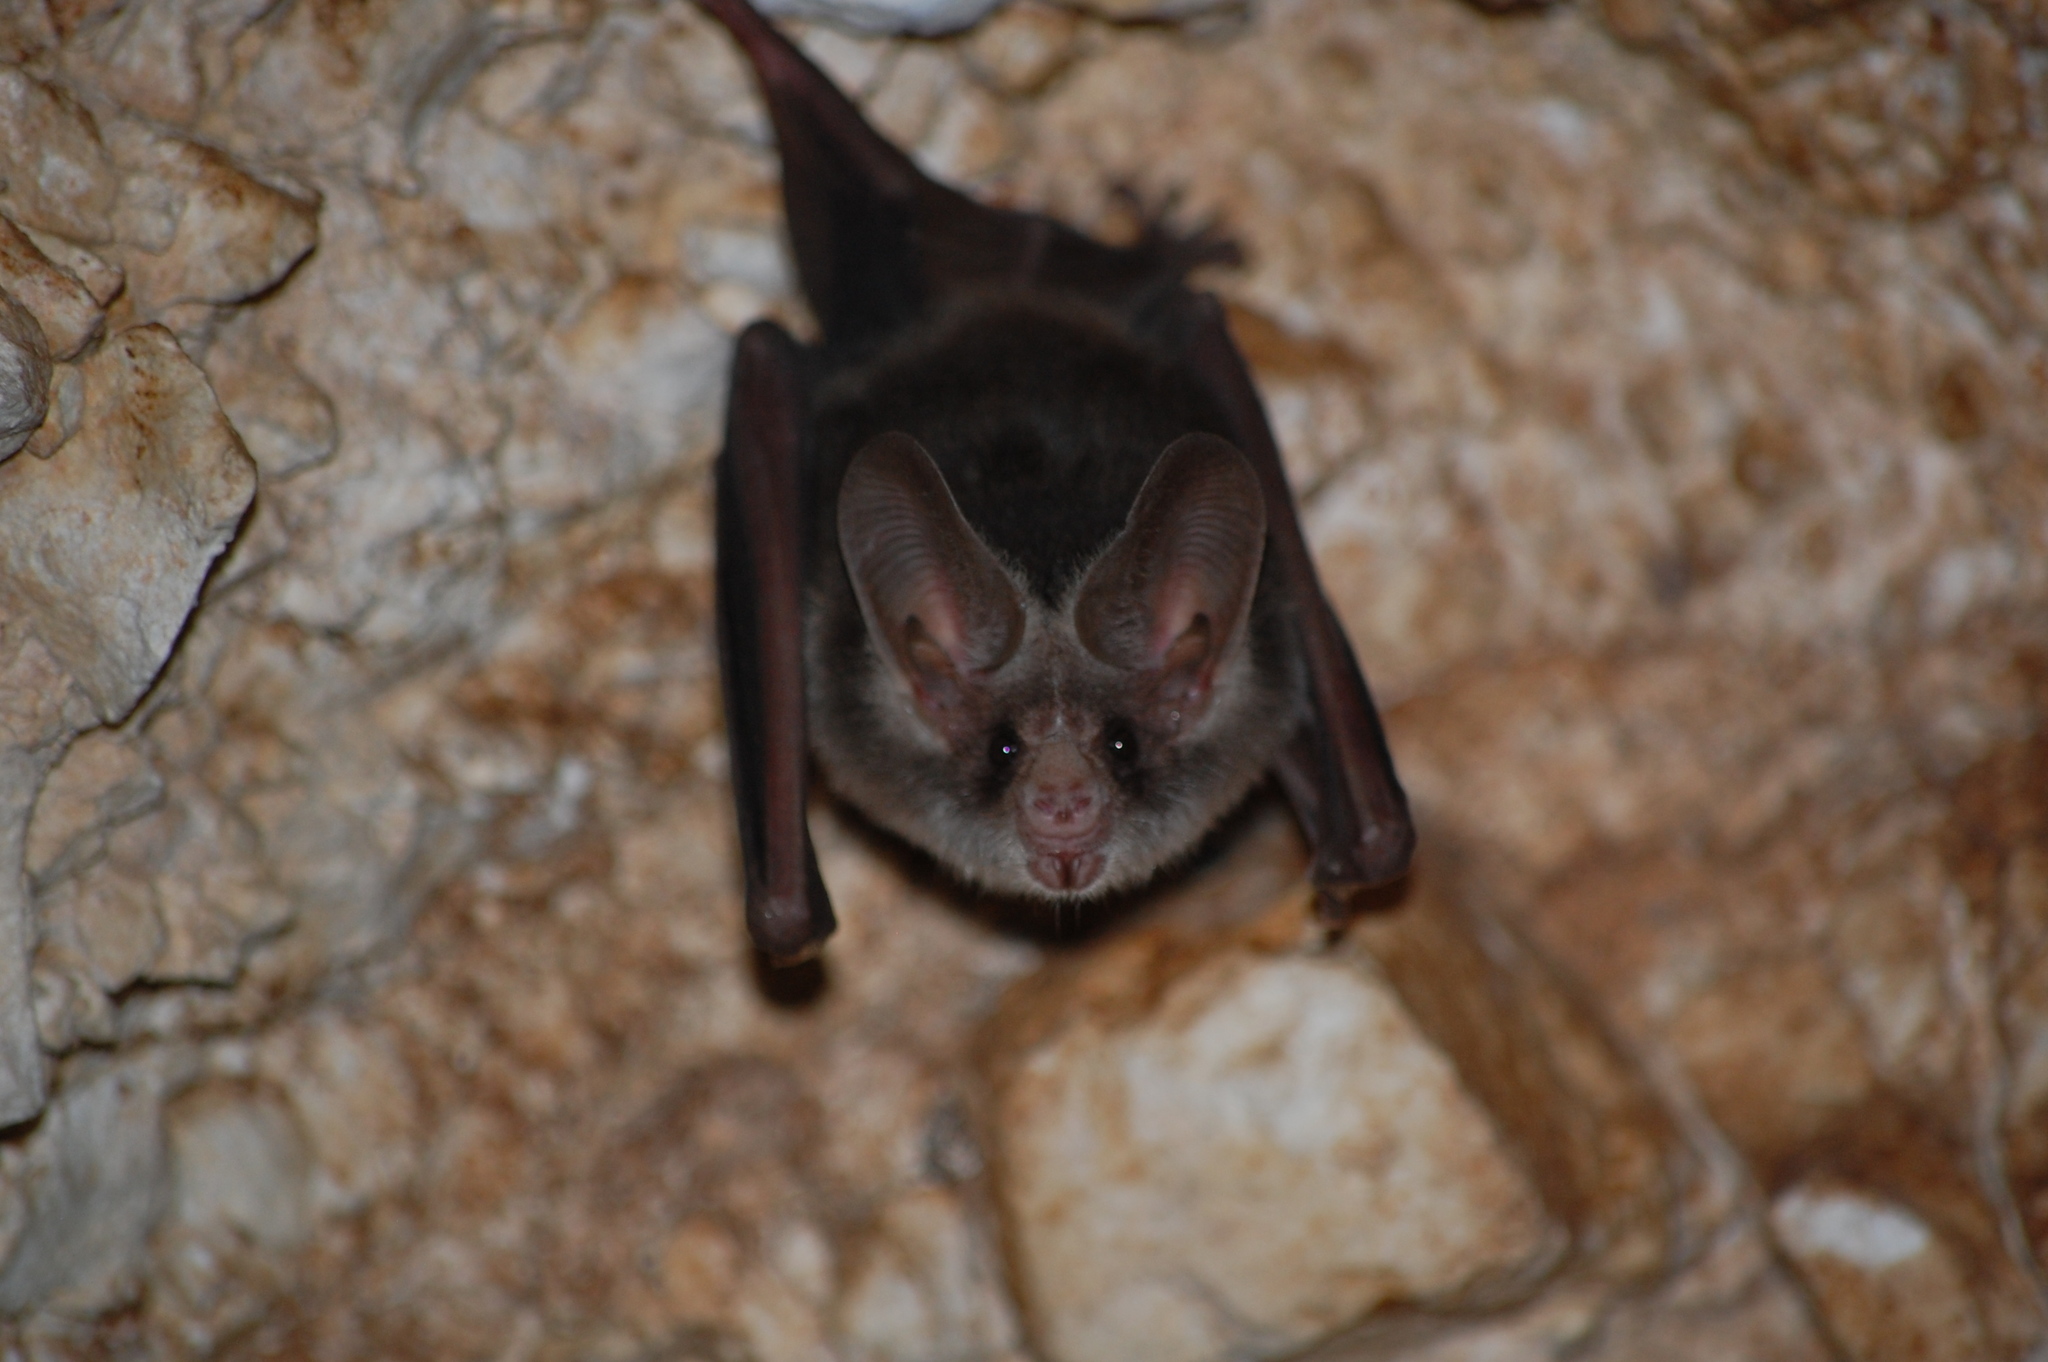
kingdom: Animalia
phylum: Chordata
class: Mammalia
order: Chiroptera
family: Phyllostomidae
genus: Macrotus
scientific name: Macrotus waterhousii
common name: Waterhouse's leaf-nosed bat
